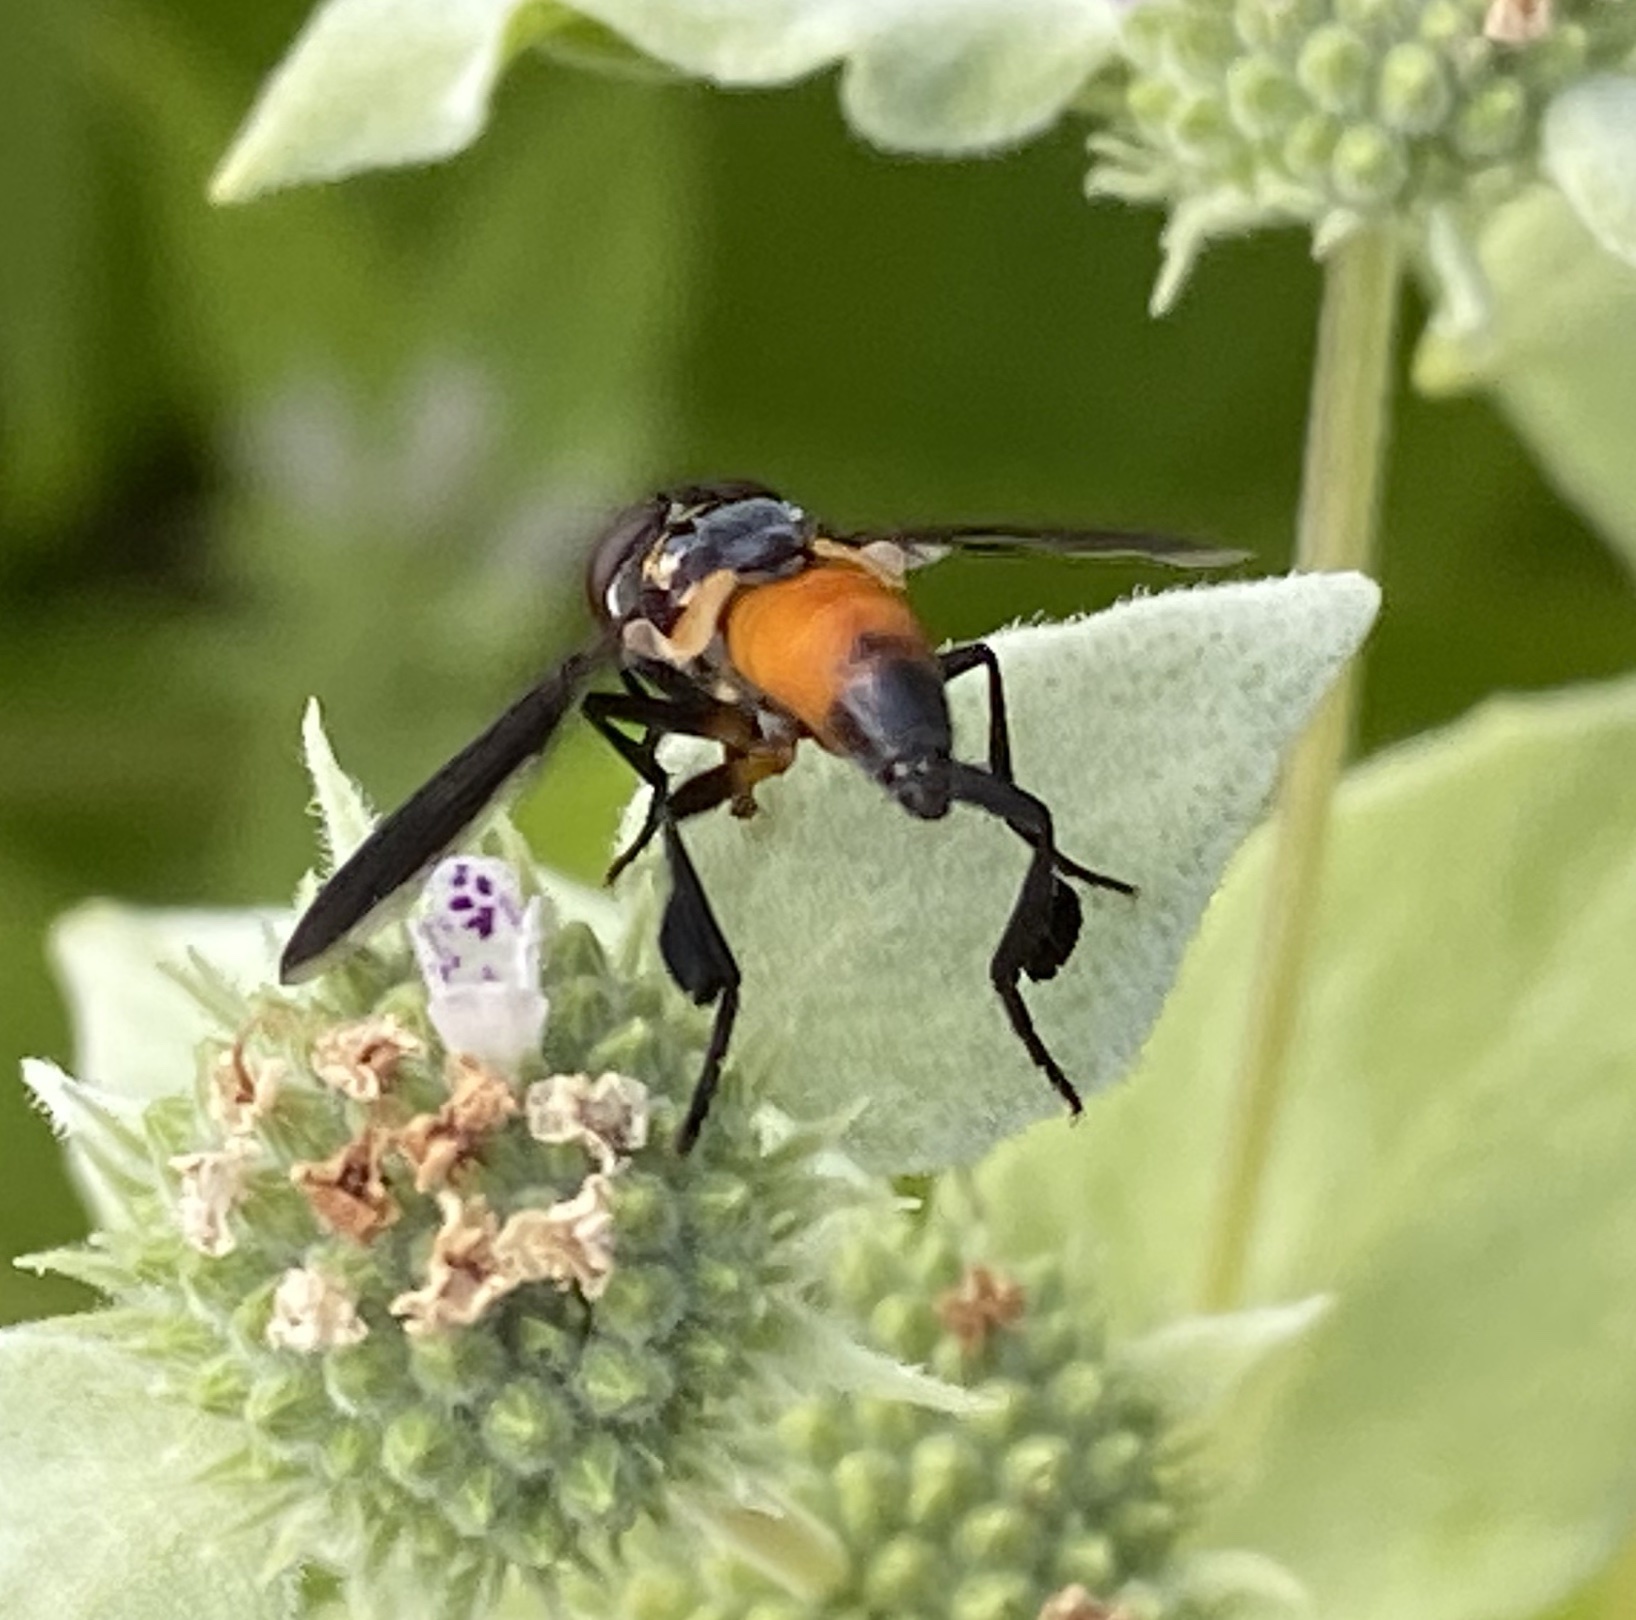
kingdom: Animalia
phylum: Arthropoda
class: Insecta
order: Diptera
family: Tachinidae
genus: Trichopoda
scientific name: Trichopoda pennipes
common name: Tachinid fly
